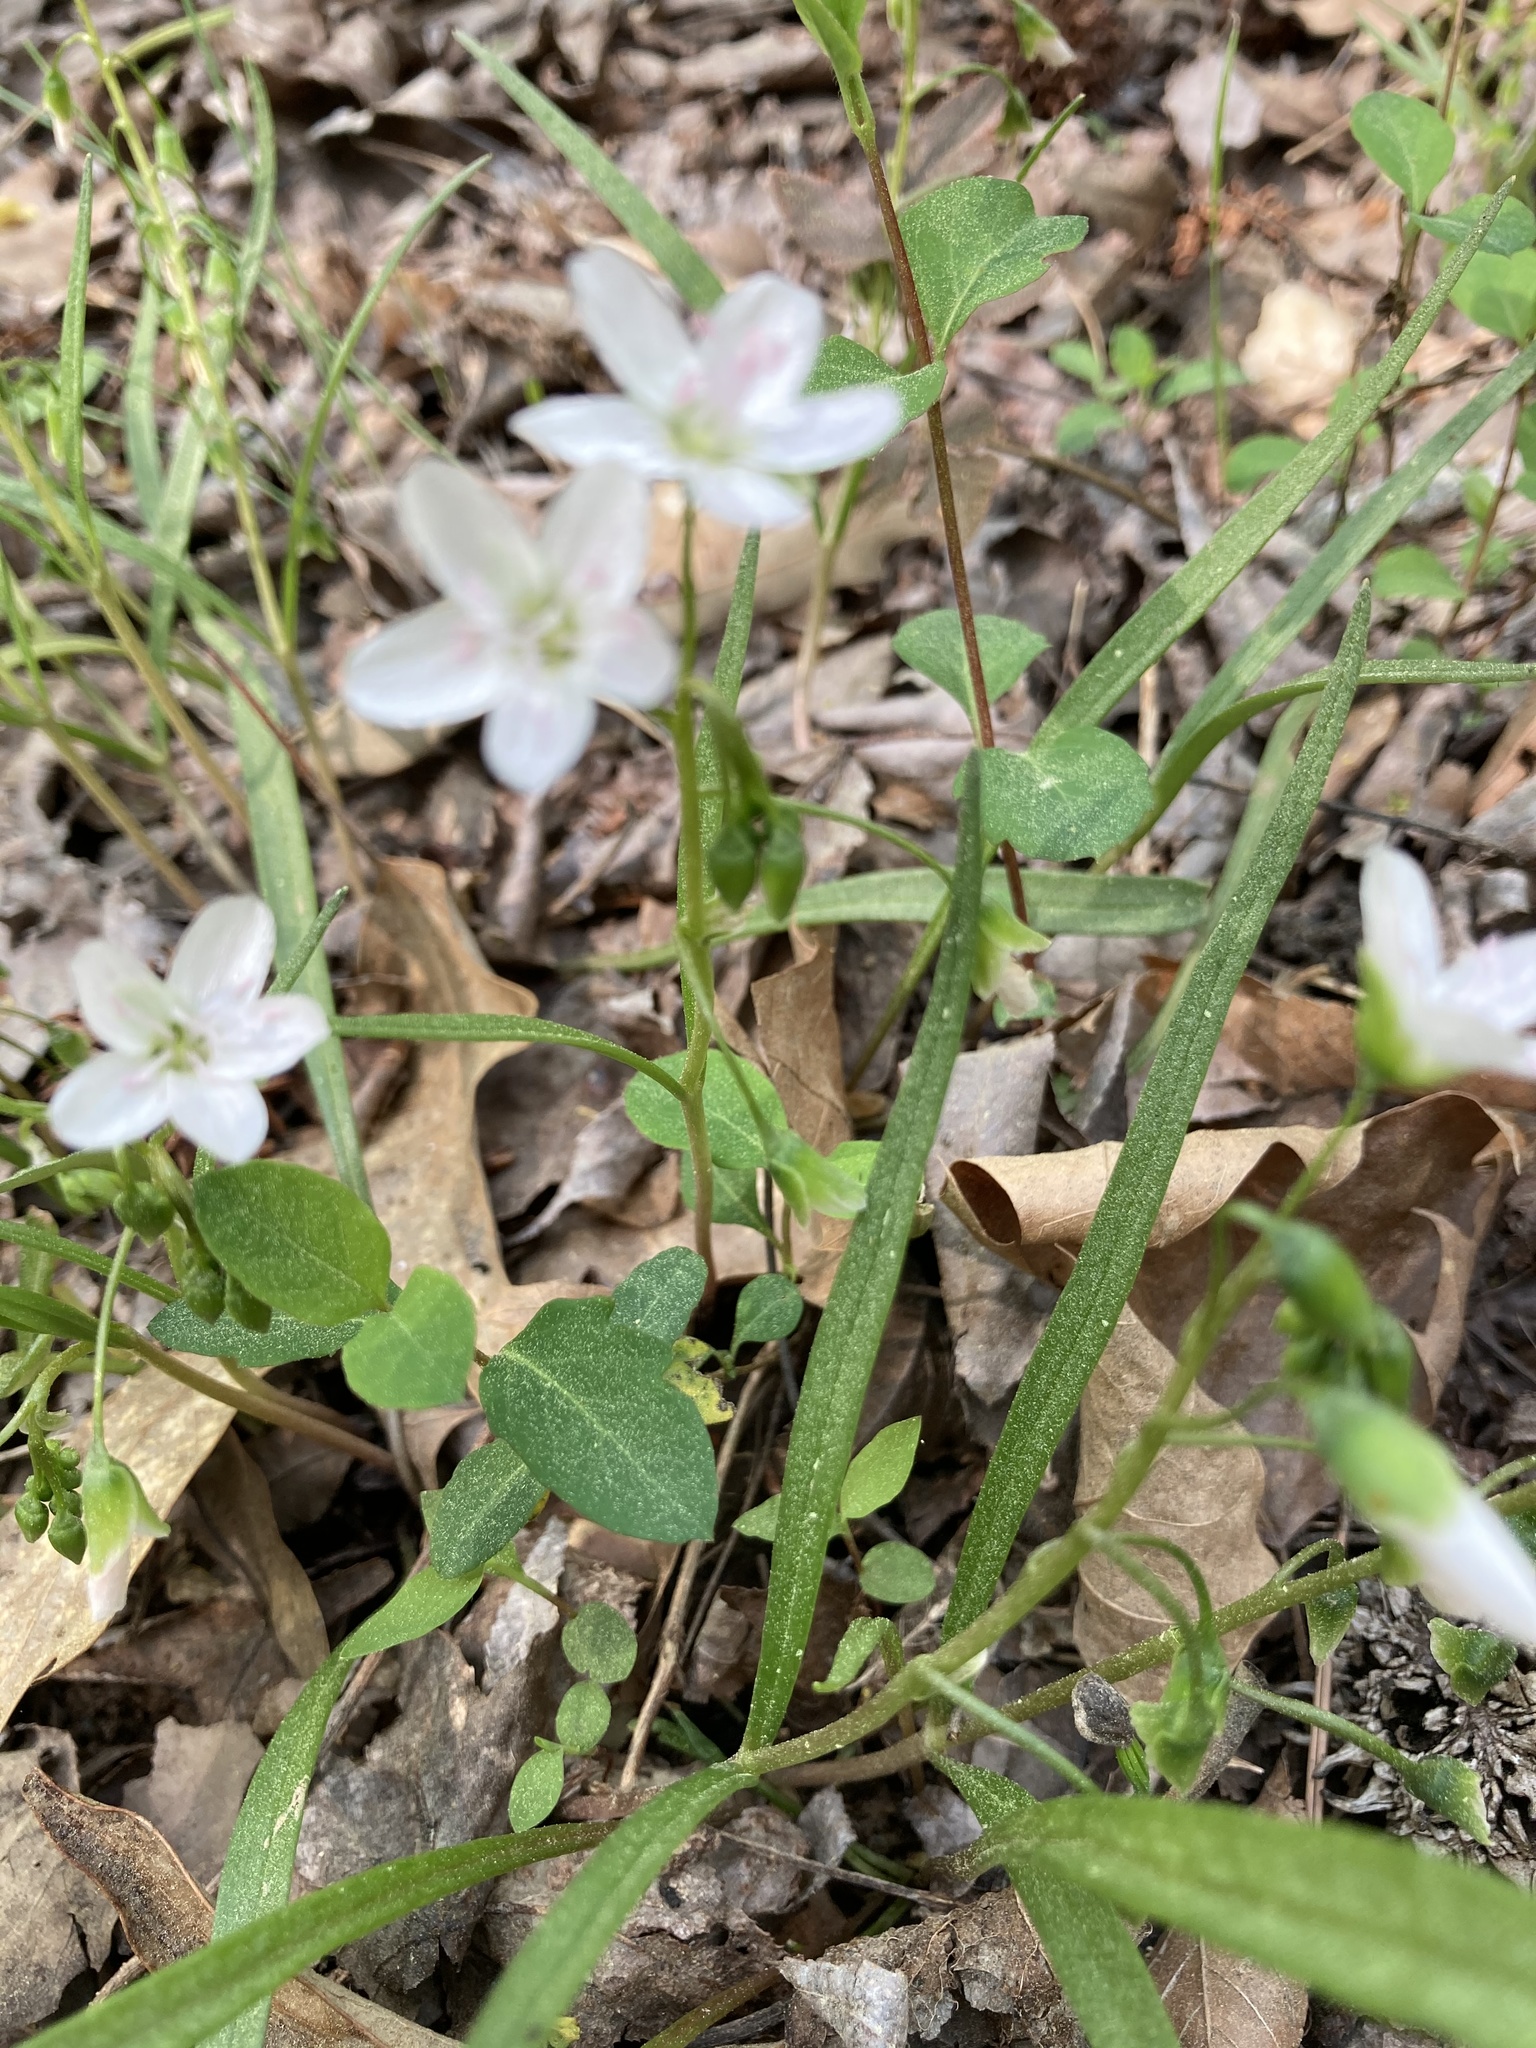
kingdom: Plantae
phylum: Tracheophyta
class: Magnoliopsida
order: Caryophyllales
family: Montiaceae
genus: Claytonia
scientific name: Claytonia virginica
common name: Virginia springbeauty
